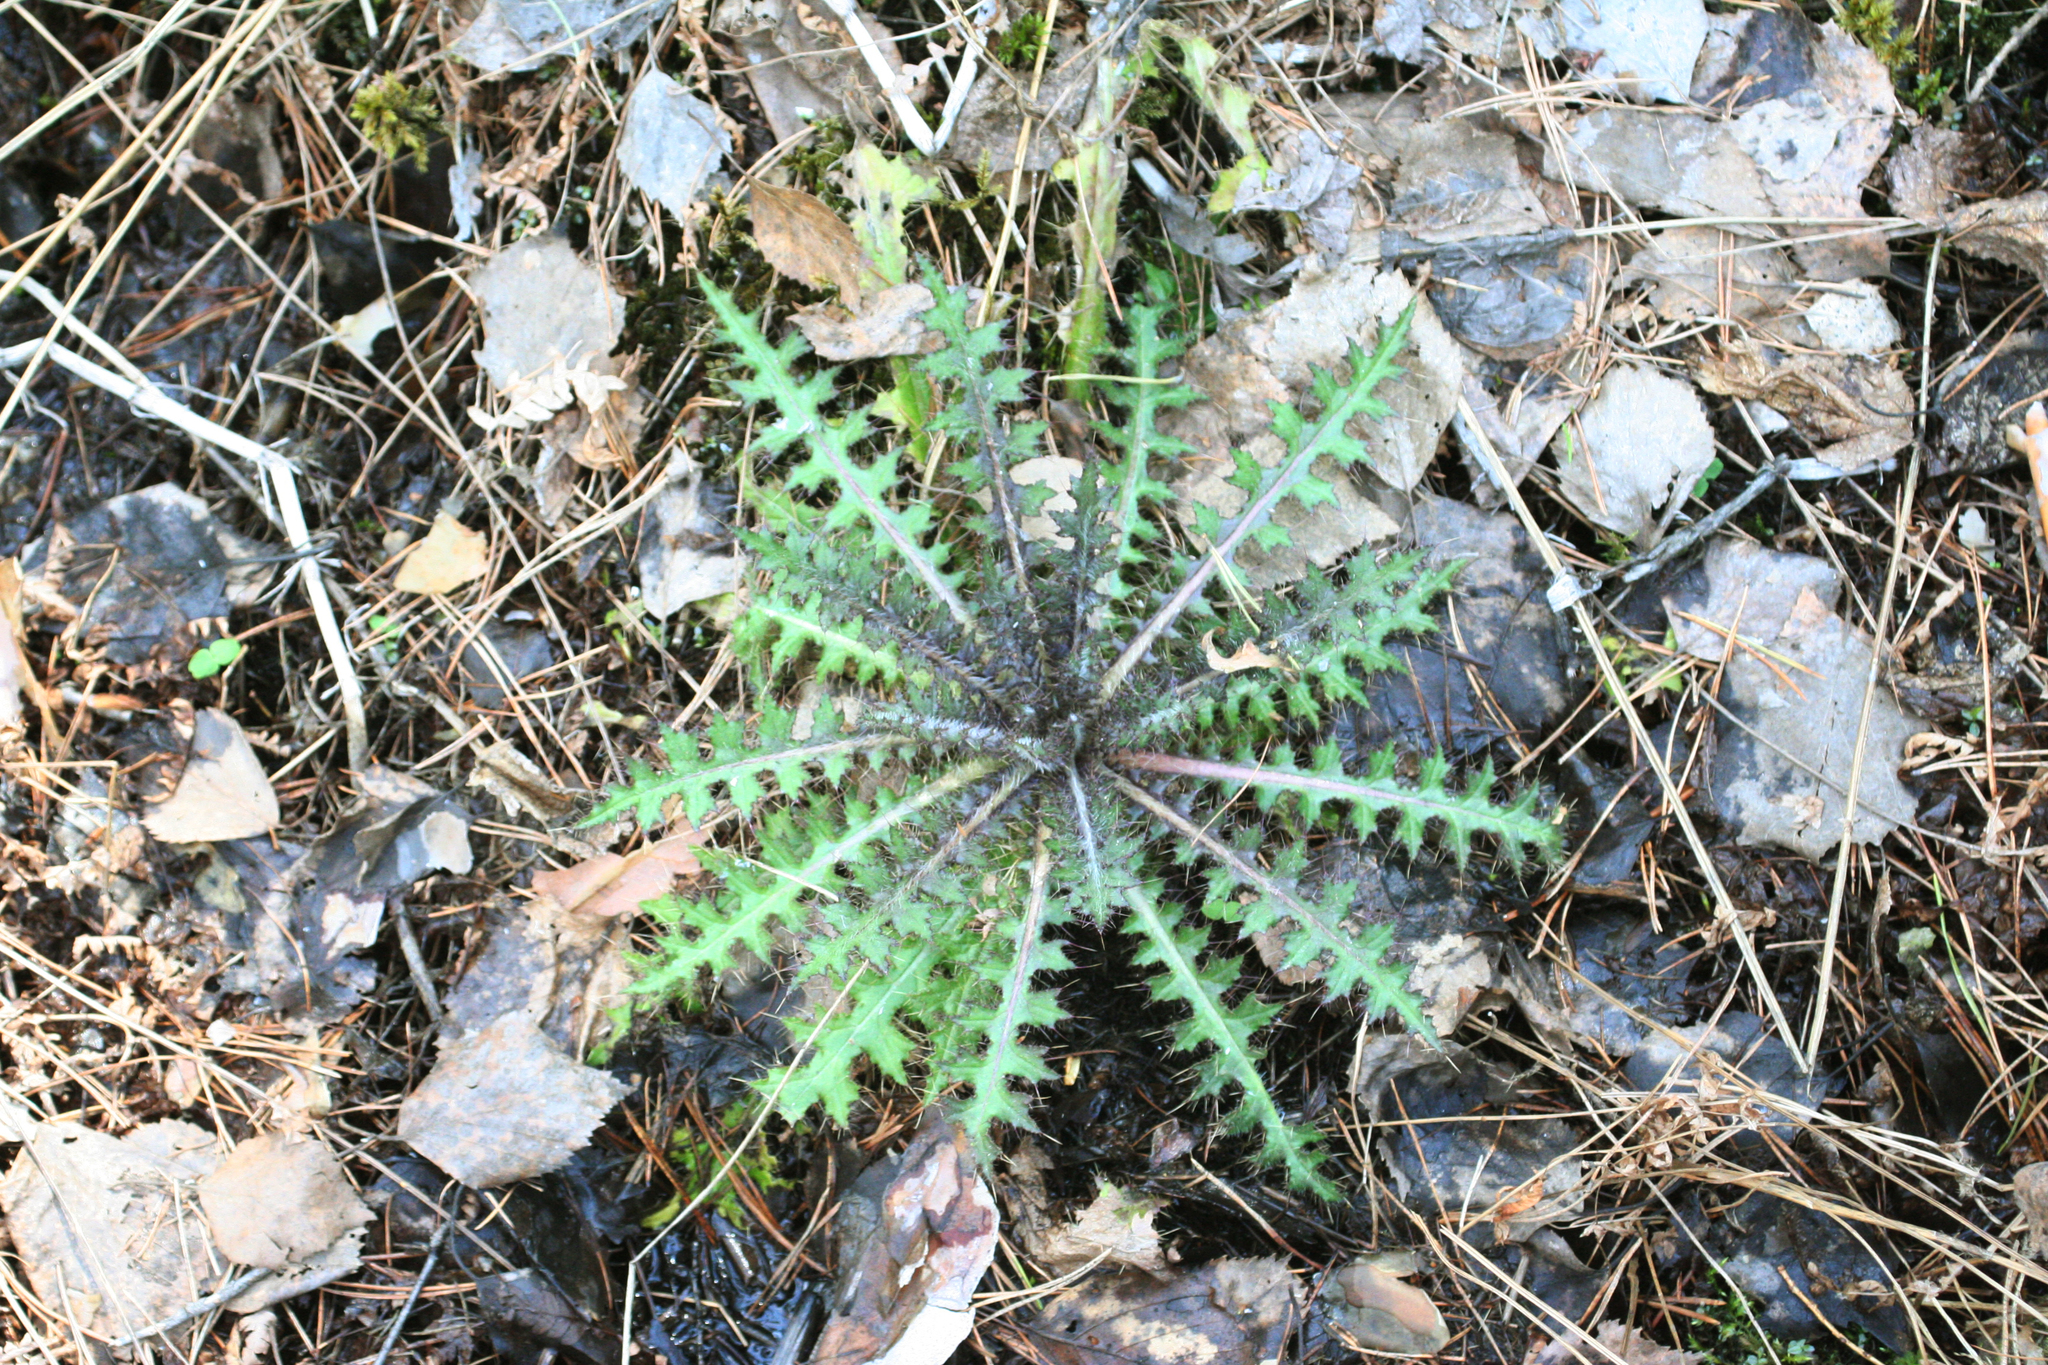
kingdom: Plantae
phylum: Tracheophyta
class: Magnoliopsida
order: Asterales
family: Asteraceae
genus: Cirsium
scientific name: Cirsium palustre
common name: Marsh thistle
